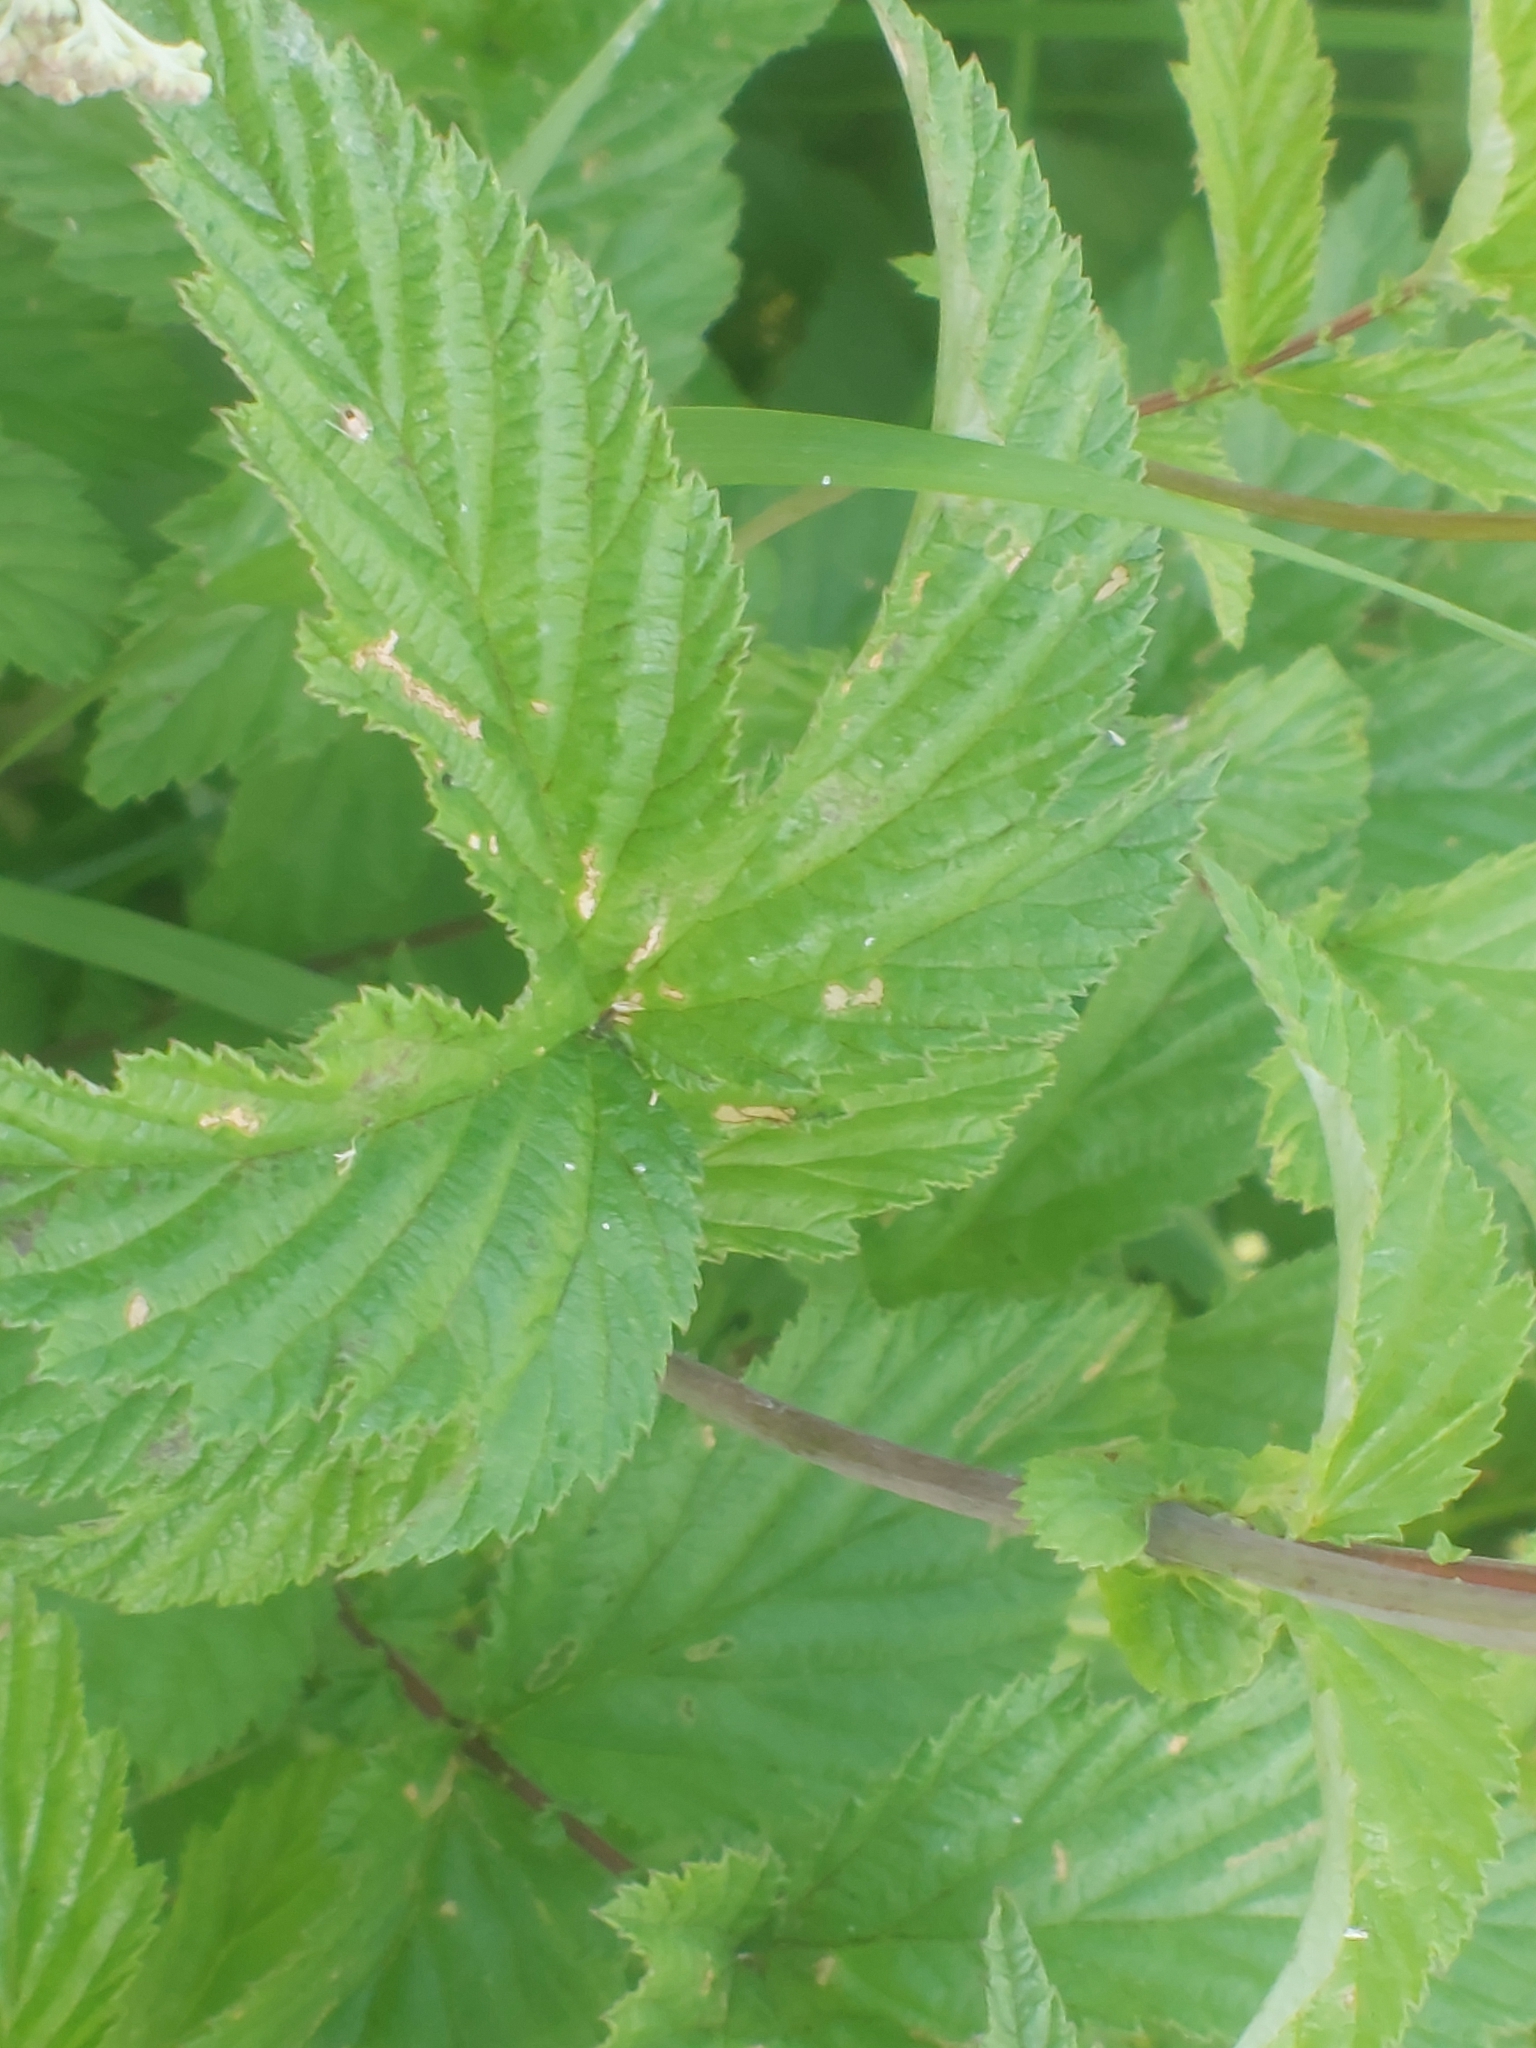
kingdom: Plantae
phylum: Tracheophyta
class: Magnoliopsida
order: Rosales
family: Rosaceae
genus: Filipendula
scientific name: Filipendula ulmaria
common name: Meadowsweet
